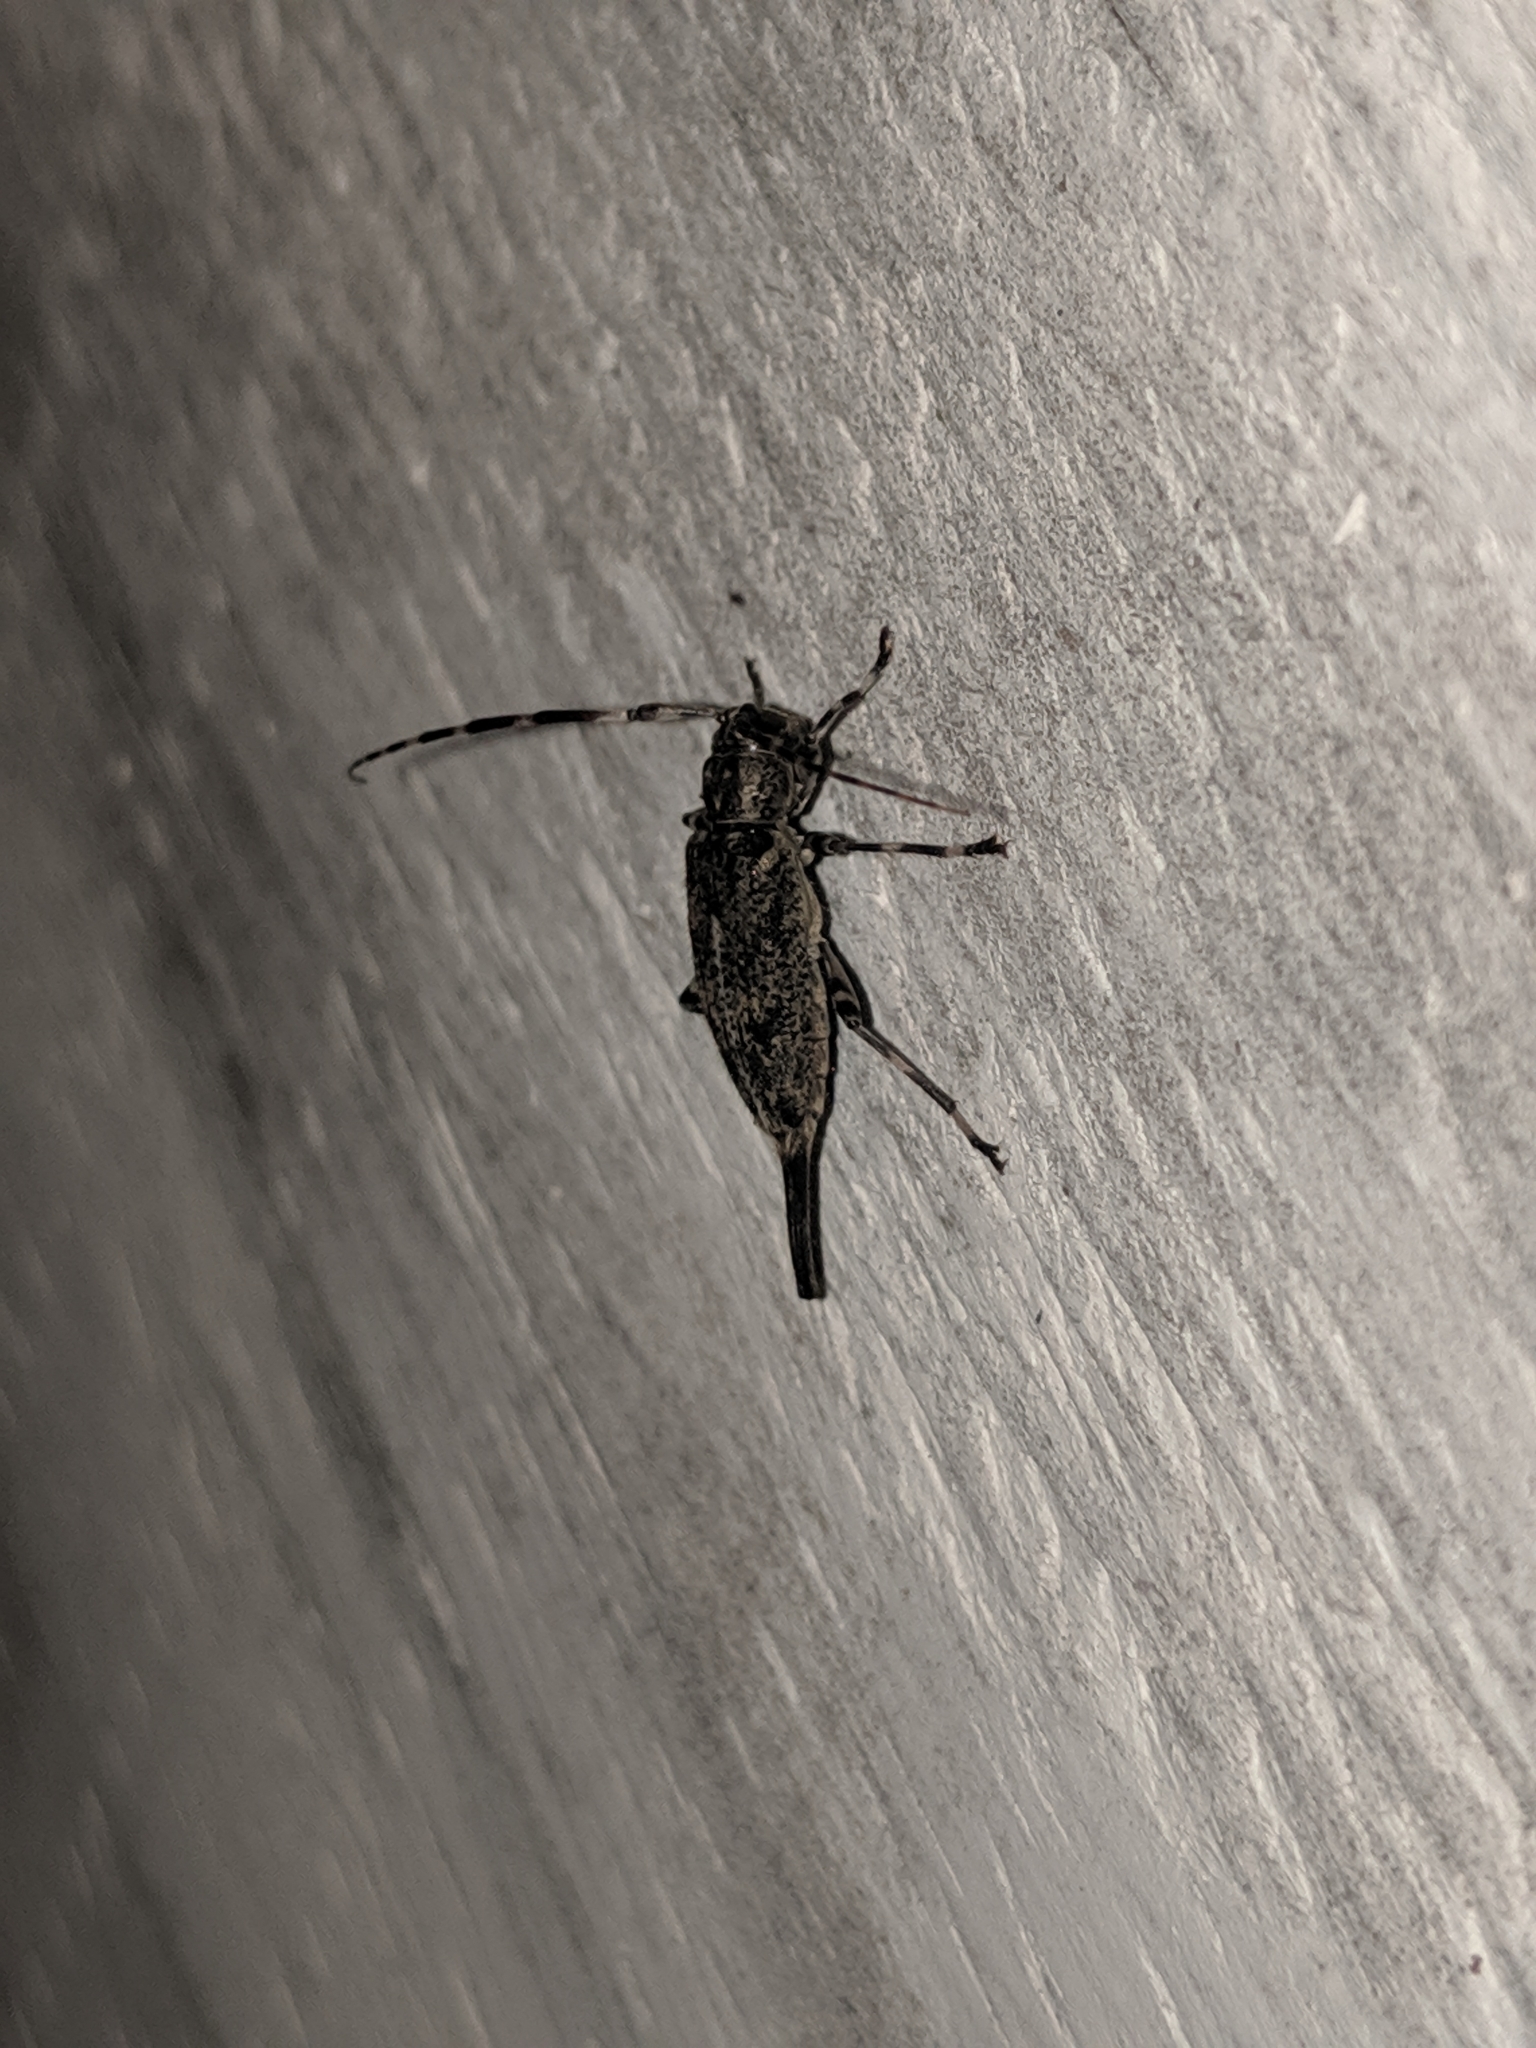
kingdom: Animalia
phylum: Arthropoda
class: Insecta
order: Coleoptera
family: Cerambycidae
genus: Graphisurus
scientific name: Graphisurus fasciatus
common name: Banded graphisurus
